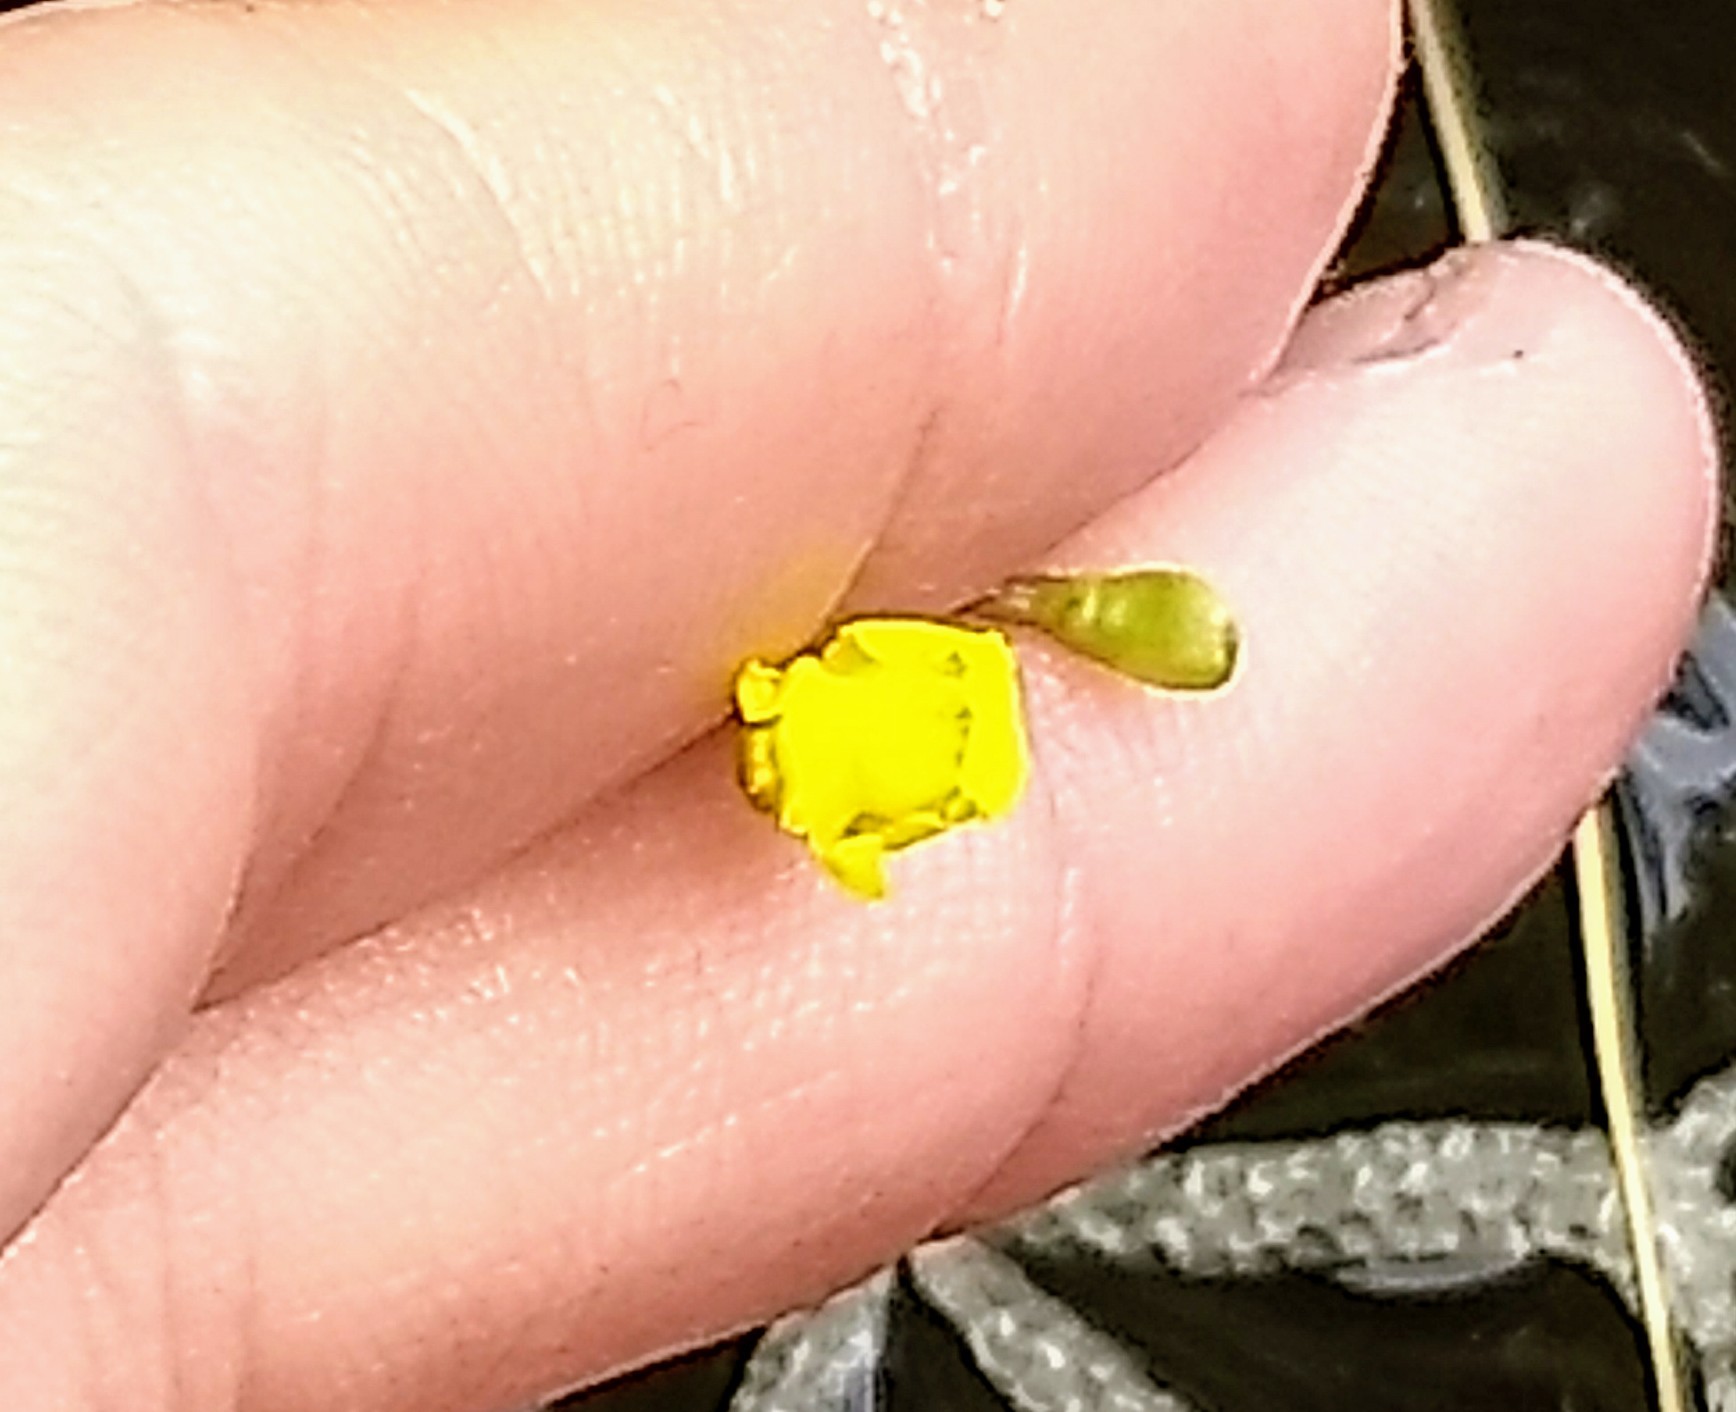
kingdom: Plantae
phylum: Tracheophyta
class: Magnoliopsida
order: Lamiales
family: Lentibulariaceae
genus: Utricularia
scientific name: Utricularia radiata
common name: Floating bladderwort
